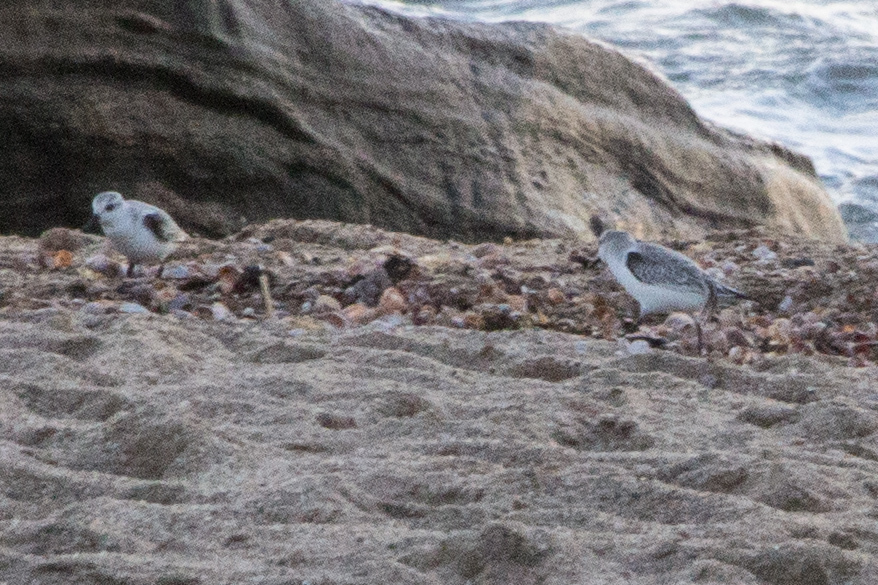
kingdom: Animalia
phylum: Chordata
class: Aves
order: Charadriiformes
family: Scolopacidae
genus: Calidris
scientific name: Calidris alba
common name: Sanderling
